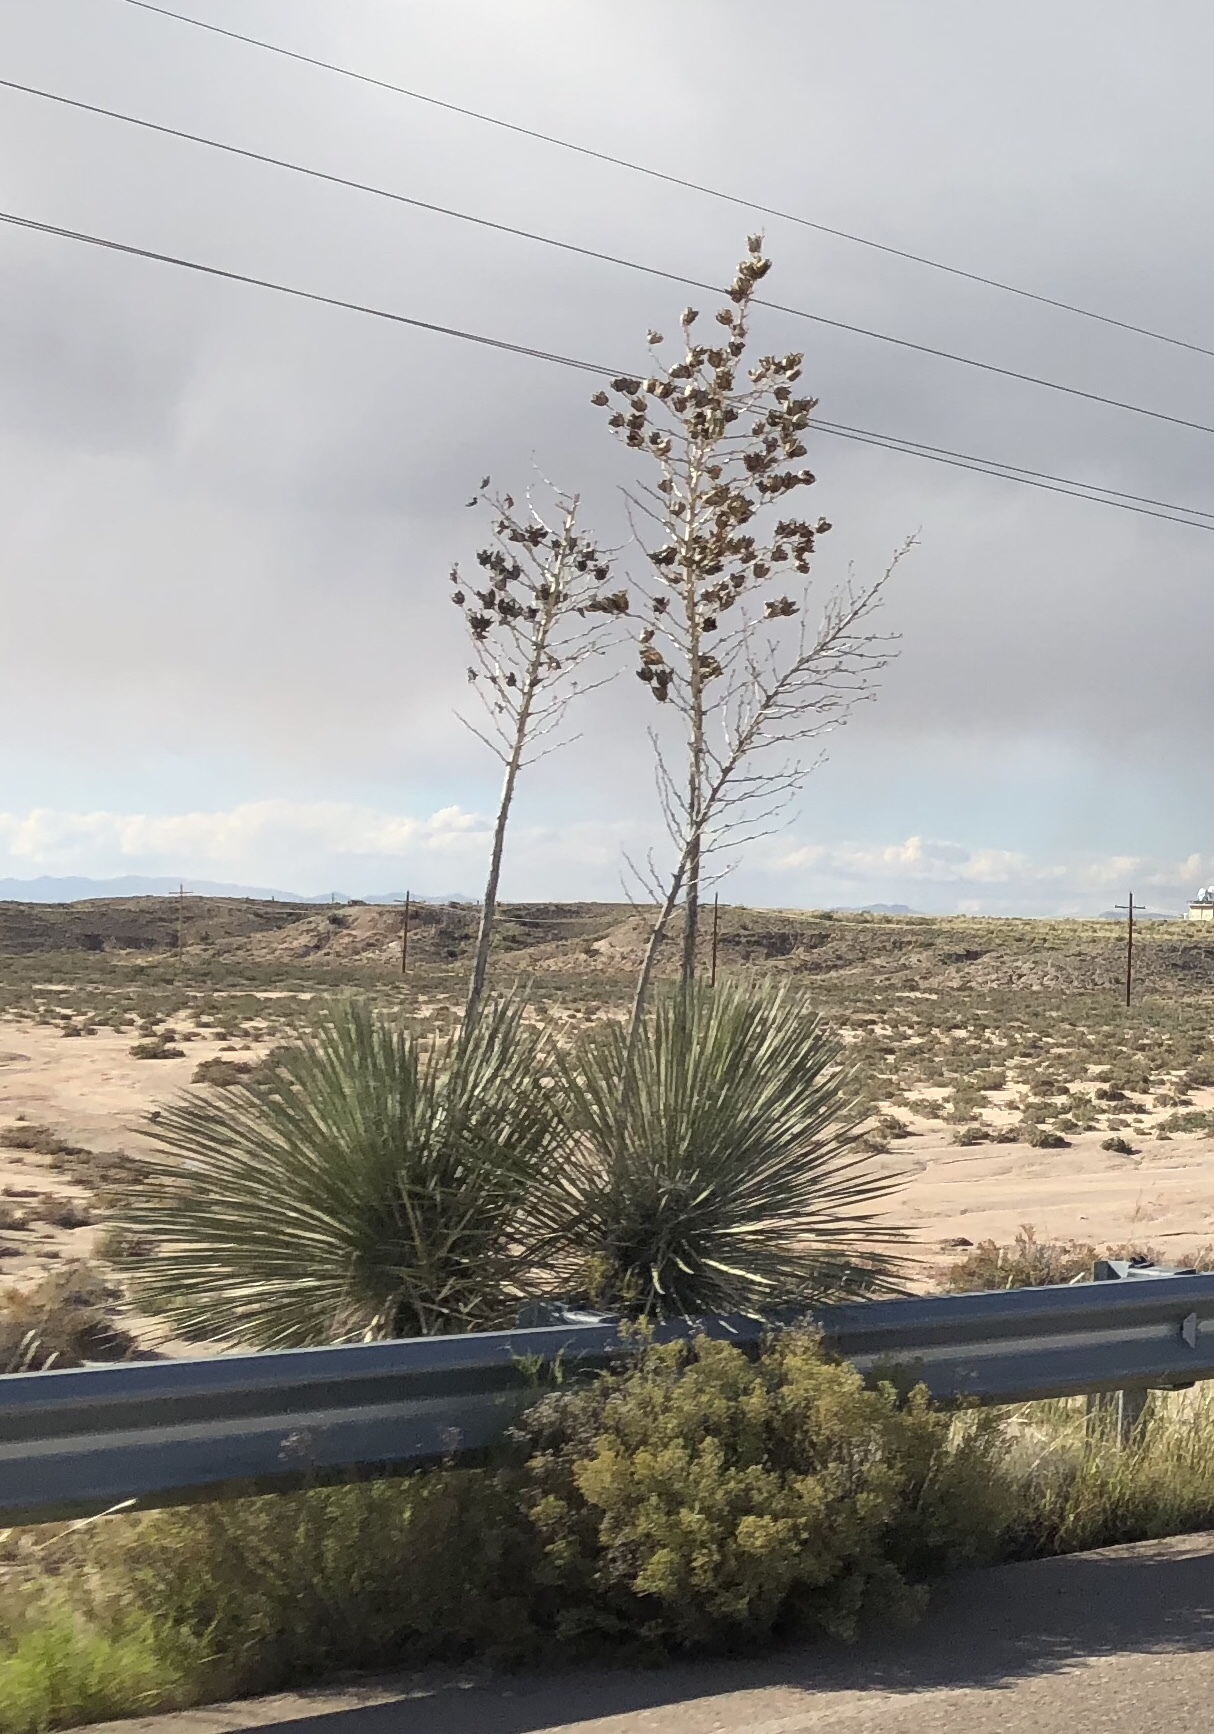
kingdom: Plantae
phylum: Tracheophyta
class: Liliopsida
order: Asparagales
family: Asparagaceae
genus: Yucca
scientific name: Yucca elata
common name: Palmella
